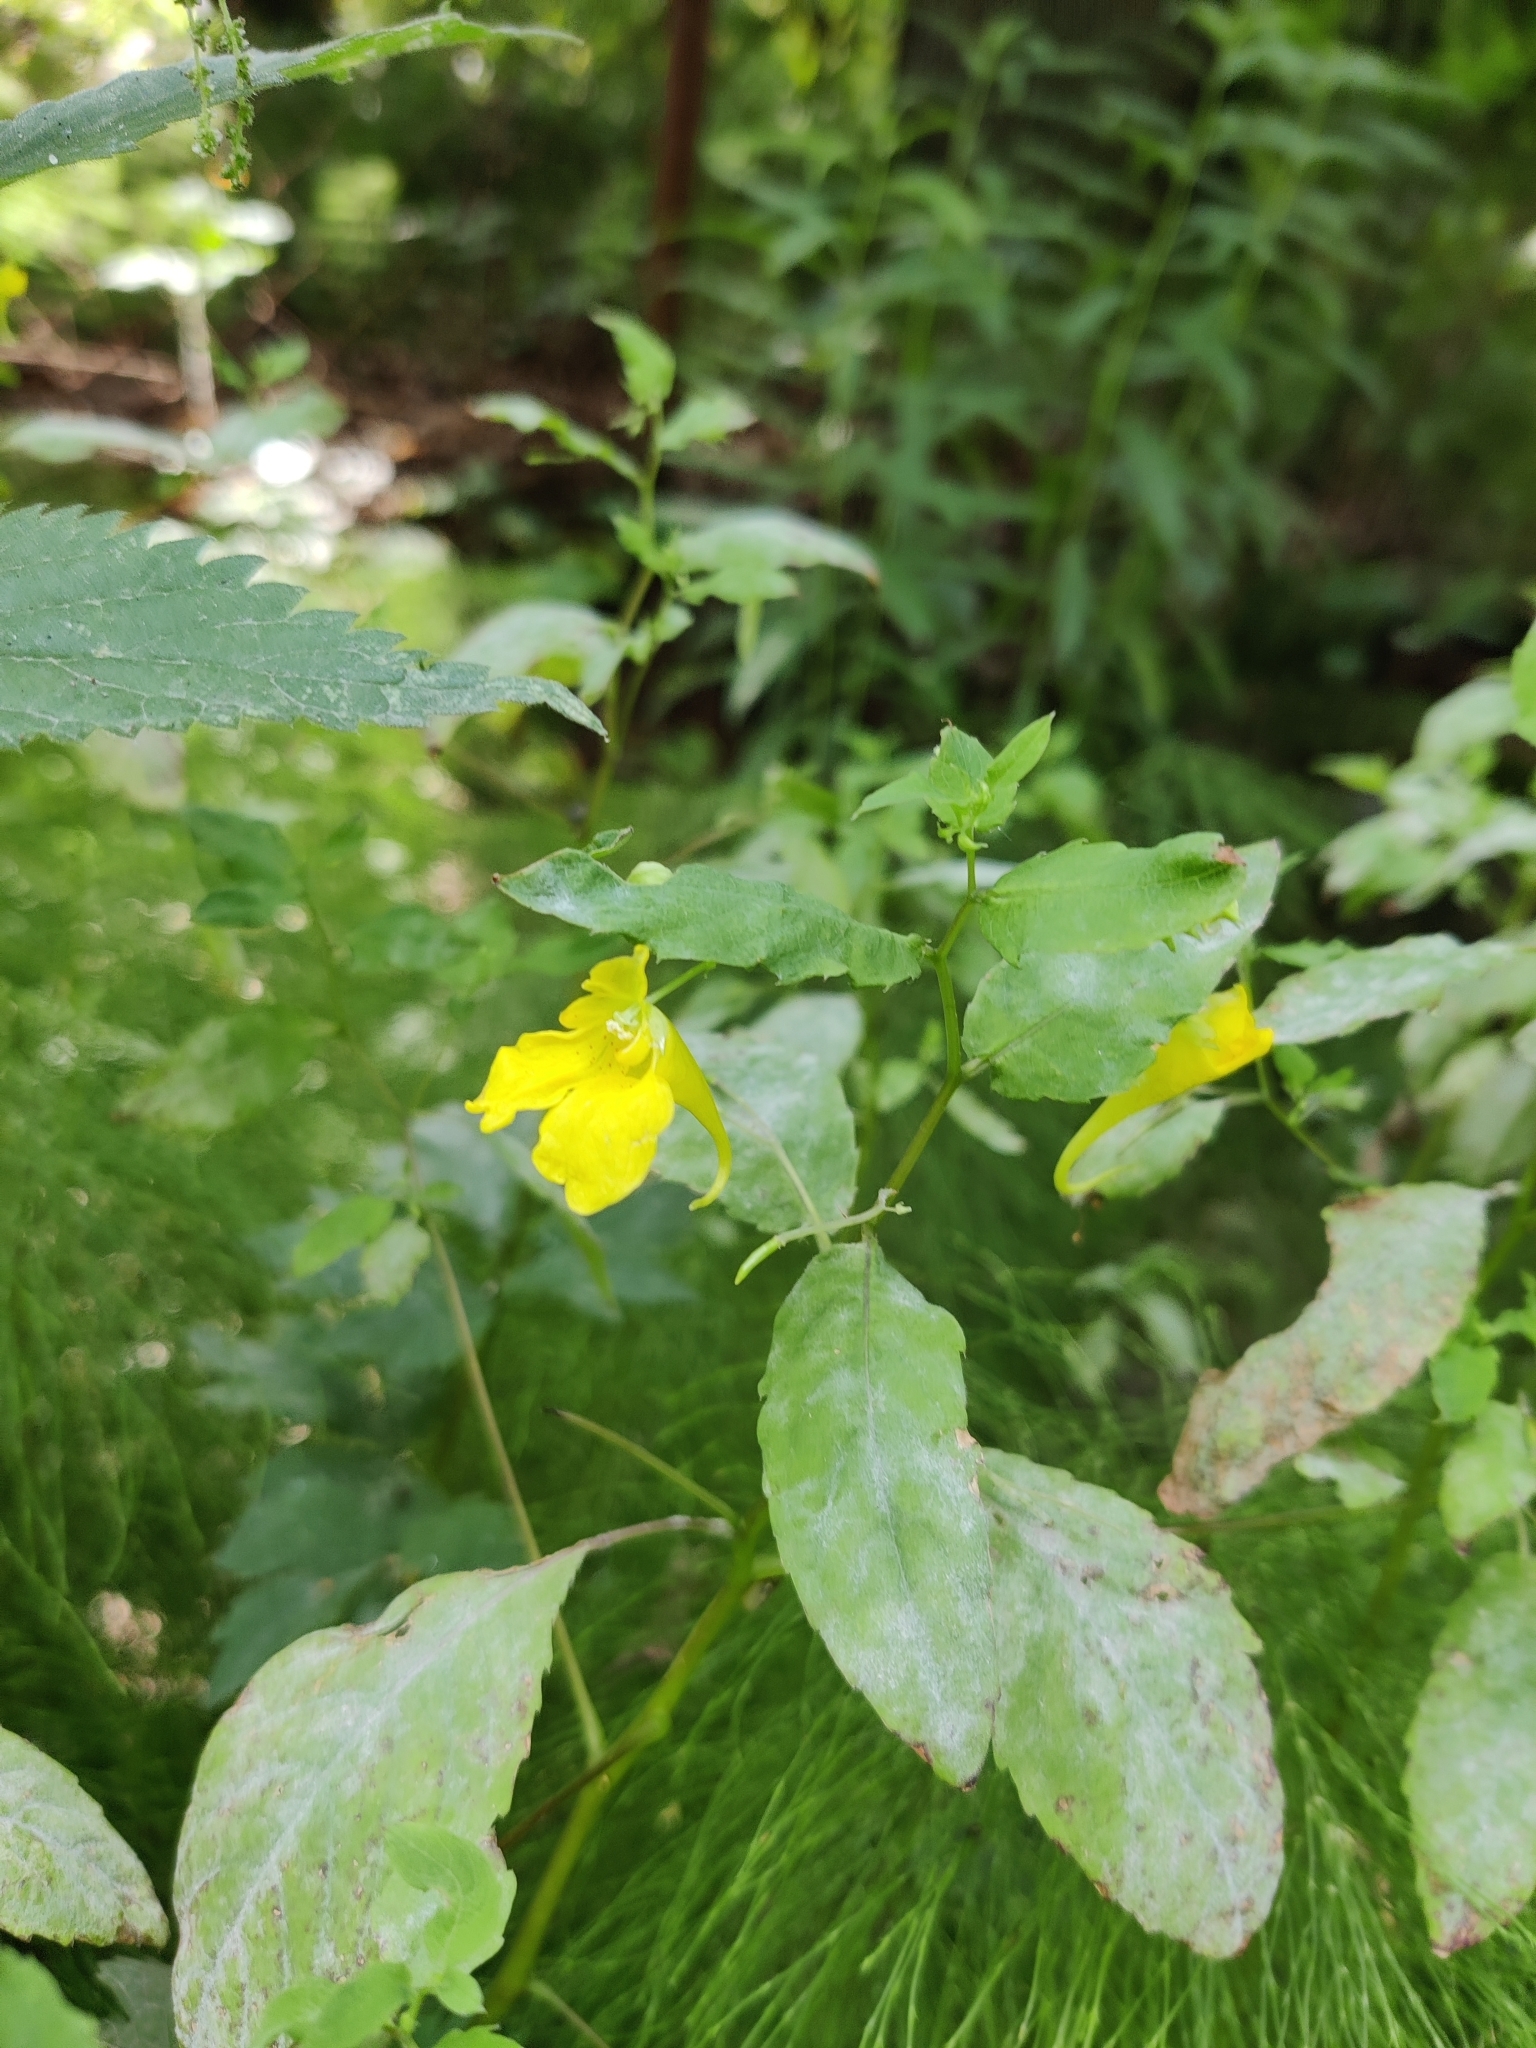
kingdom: Plantae
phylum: Tracheophyta
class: Magnoliopsida
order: Ericales
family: Balsaminaceae
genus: Impatiens
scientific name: Impatiens noli-tangere
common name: Touch-me-not balsam
